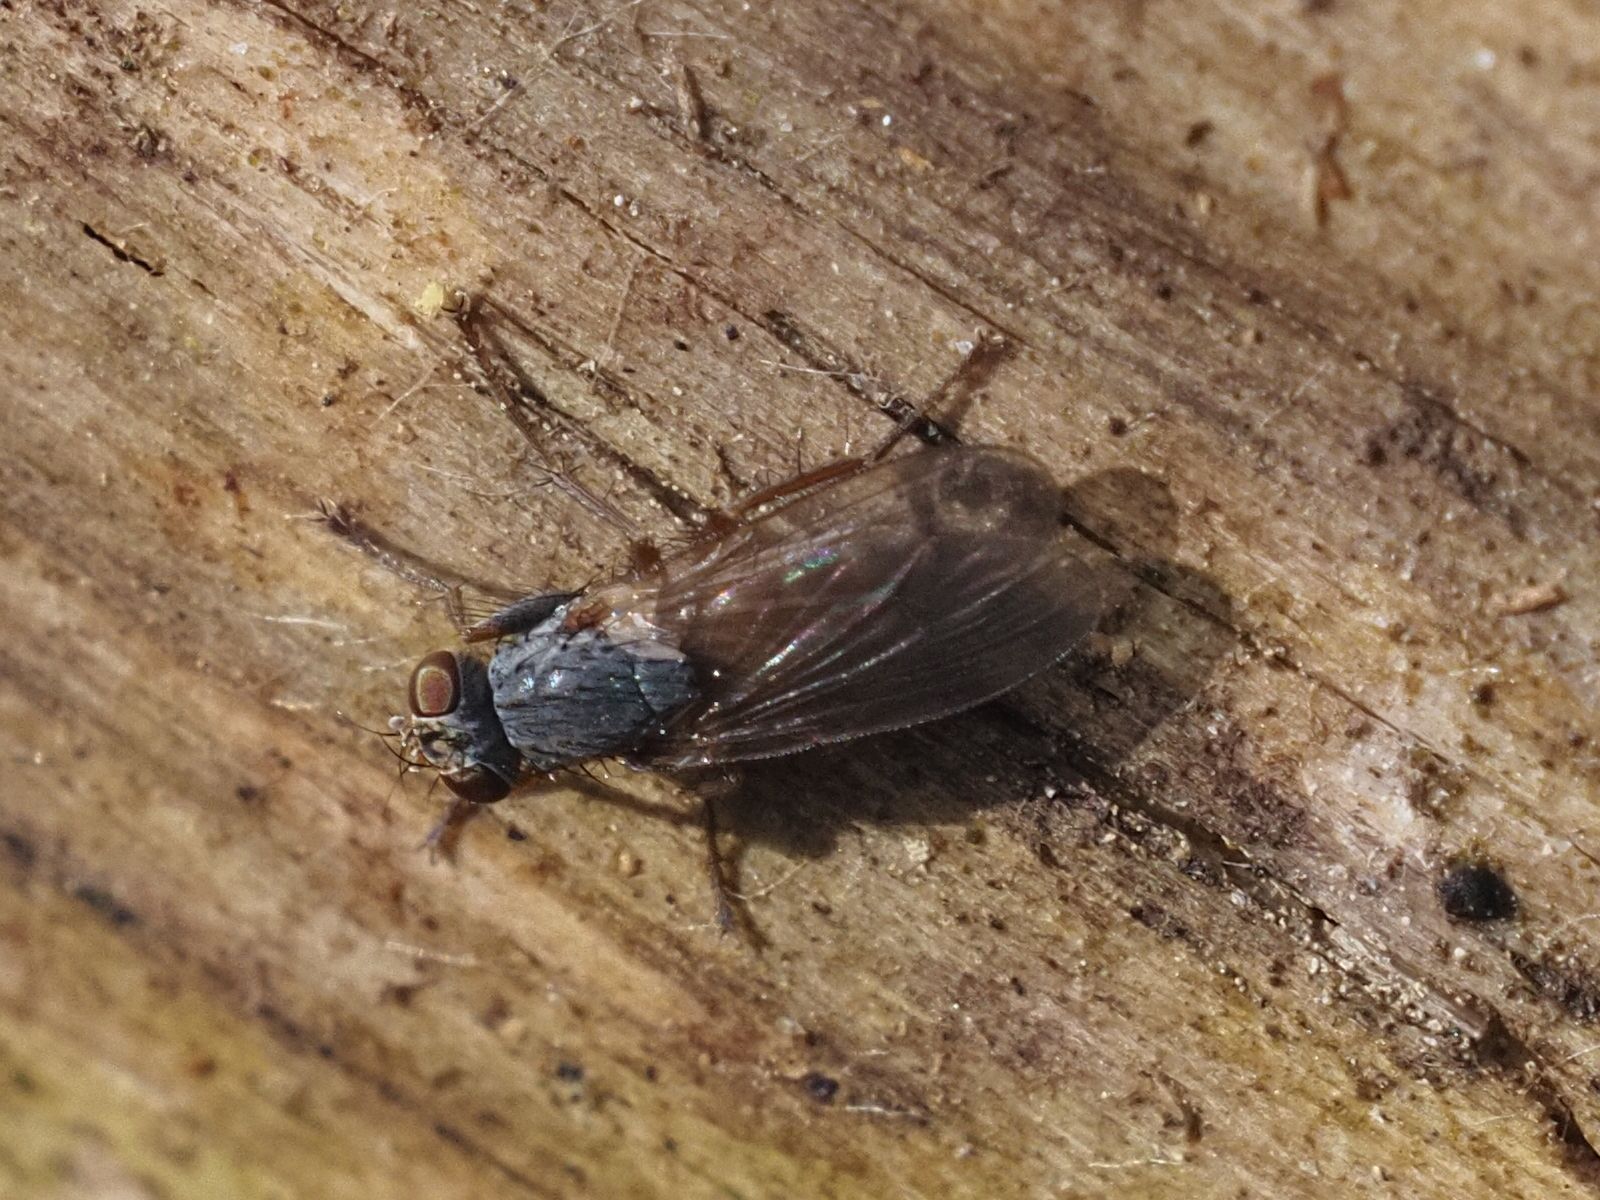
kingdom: Animalia
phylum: Arthropoda
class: Insecta
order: Diptera
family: Muscidae
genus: Lispocephala
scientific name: Lispocephala brachialis
